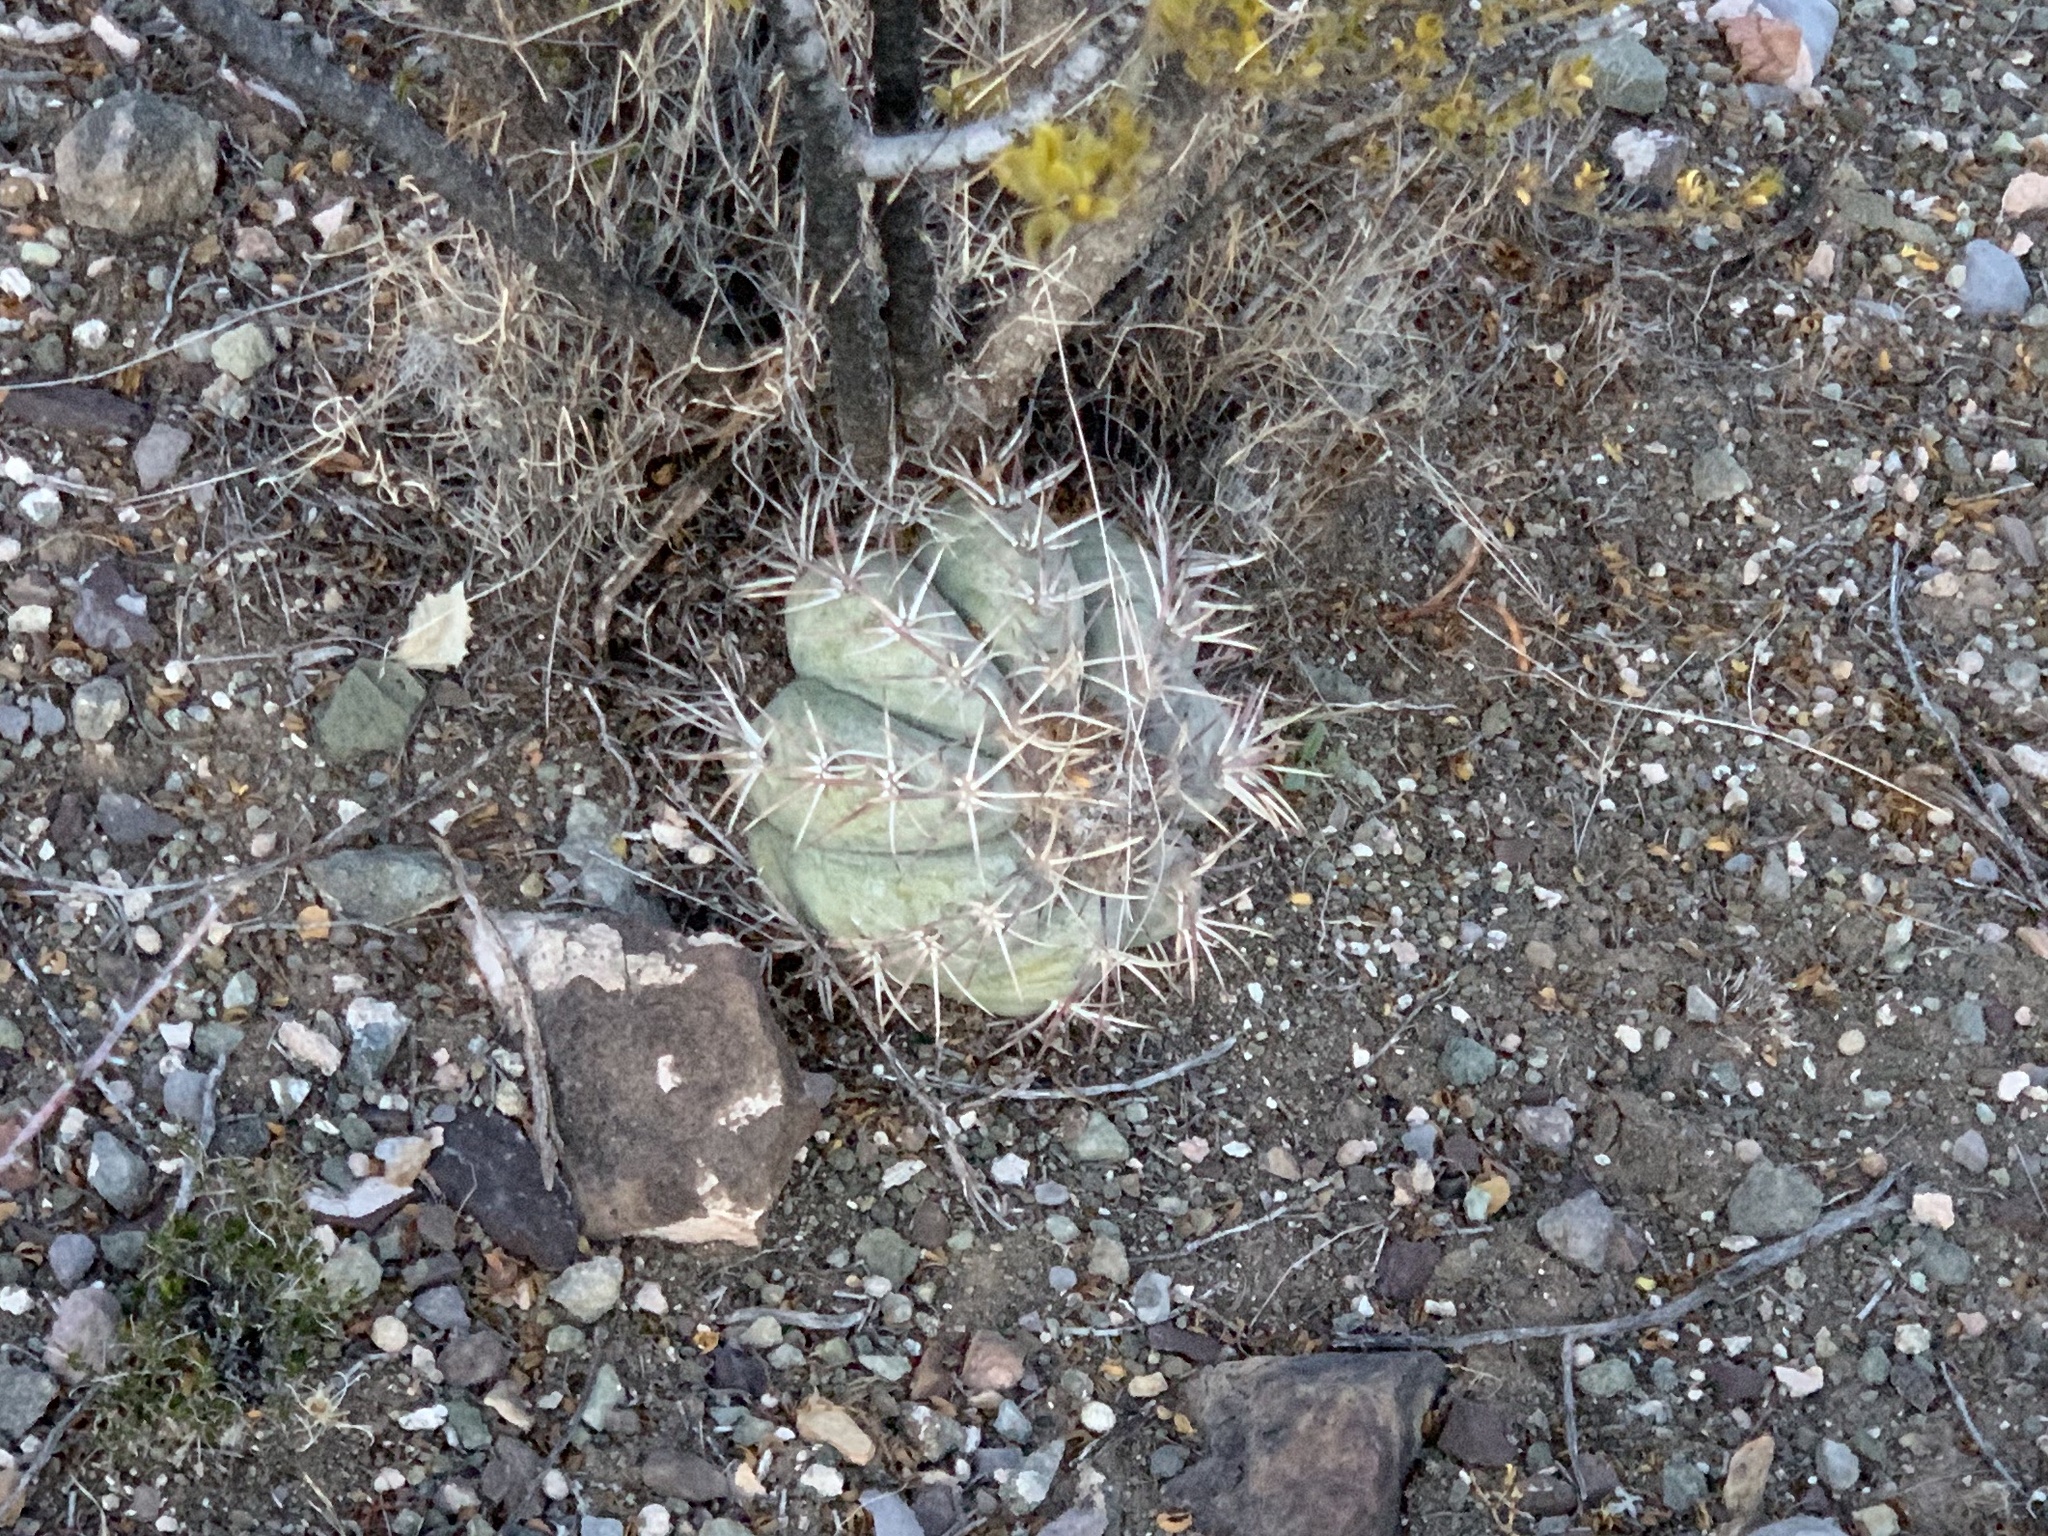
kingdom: Plantae
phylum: Tracheophyta
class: Magnoliopsida
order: Caryophyllales
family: Cactaceae
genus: Echinocactus
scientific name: Echinocactus horizonthalonius
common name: Devilshead
